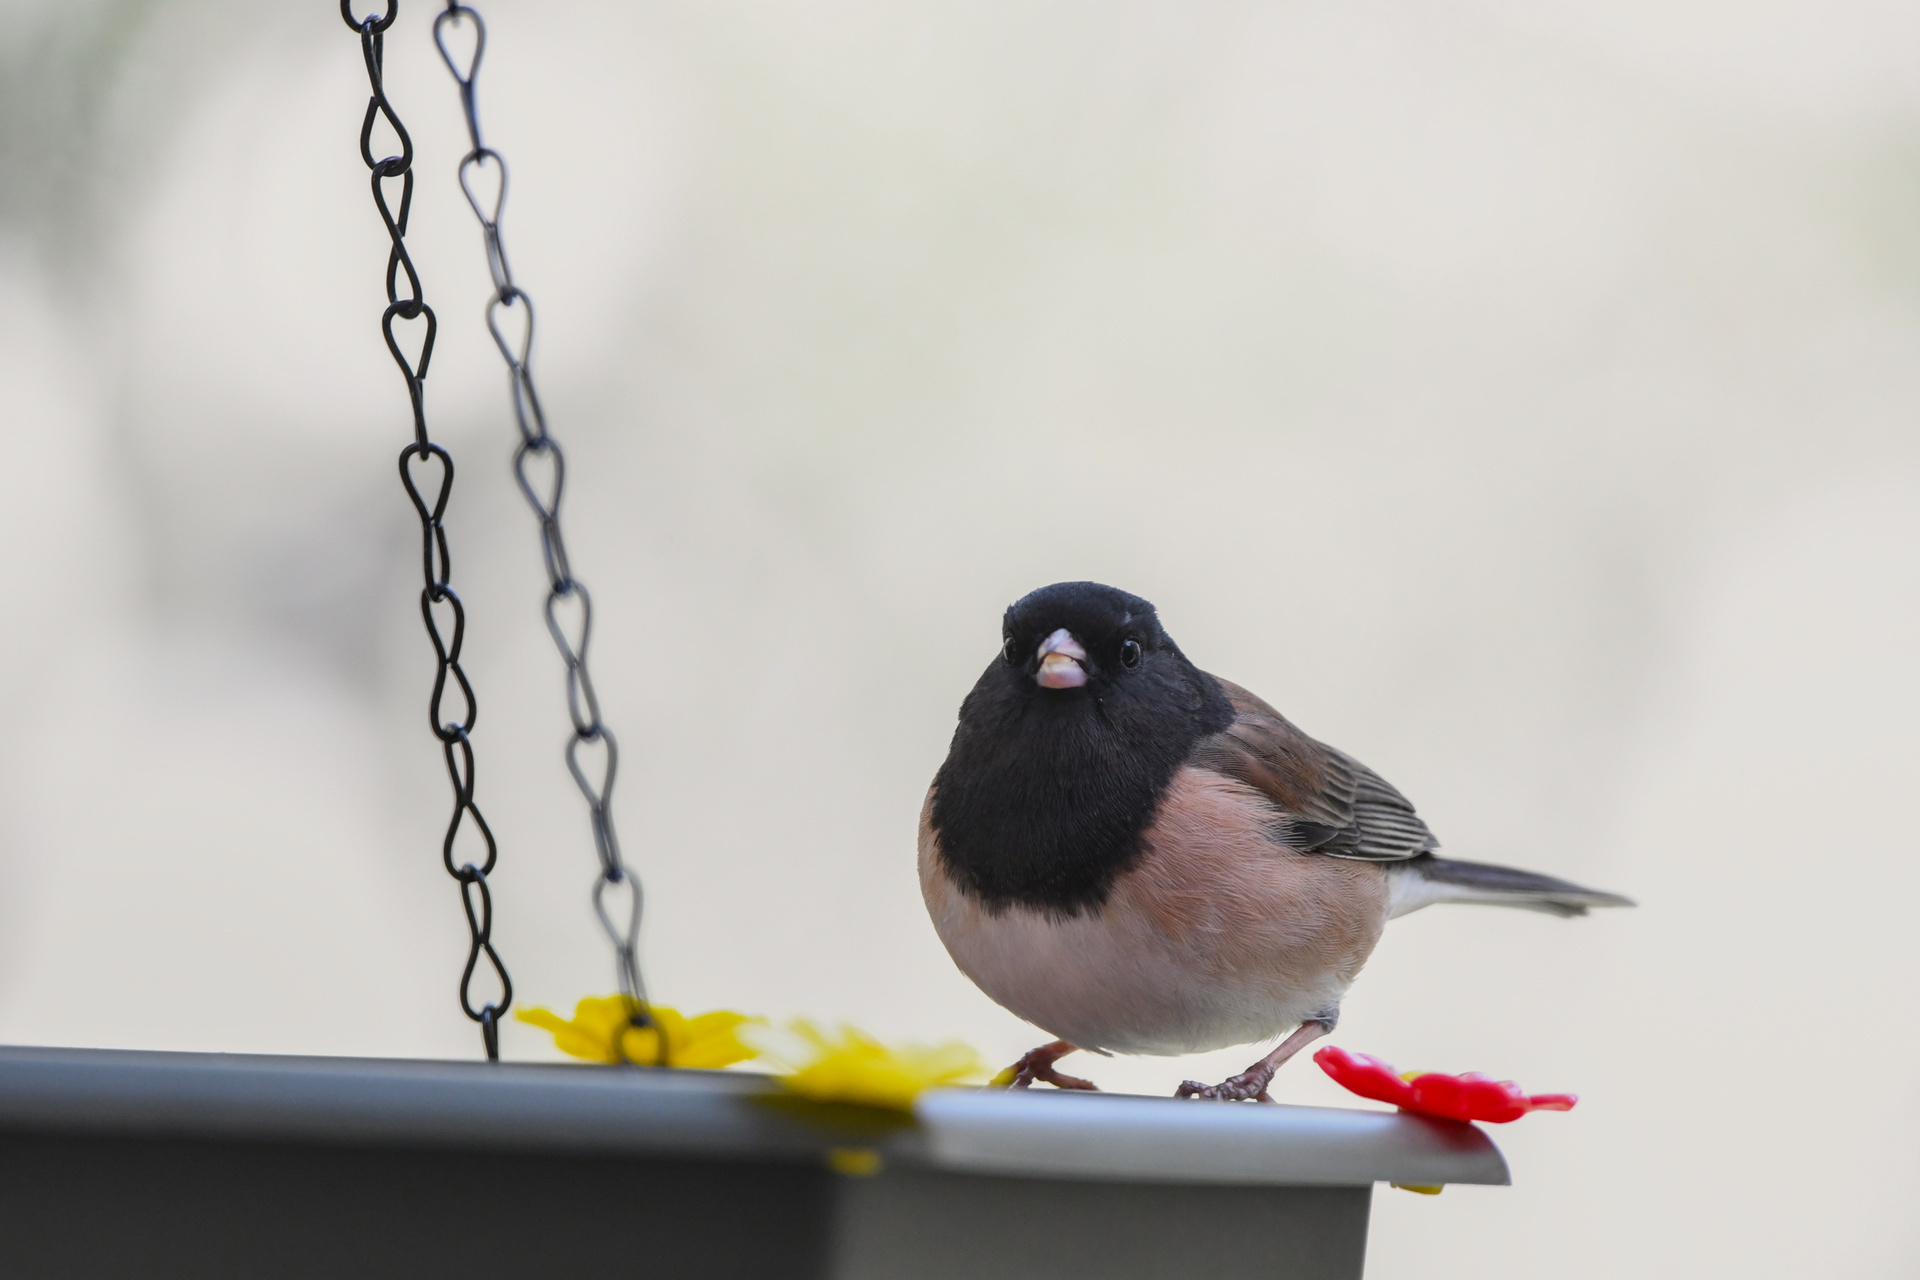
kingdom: Animalia
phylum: Chordata
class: Aves
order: Passeriformes
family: Passerellidae
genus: Junco
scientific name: Junco hyemalis
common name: Dark-eyed junco
